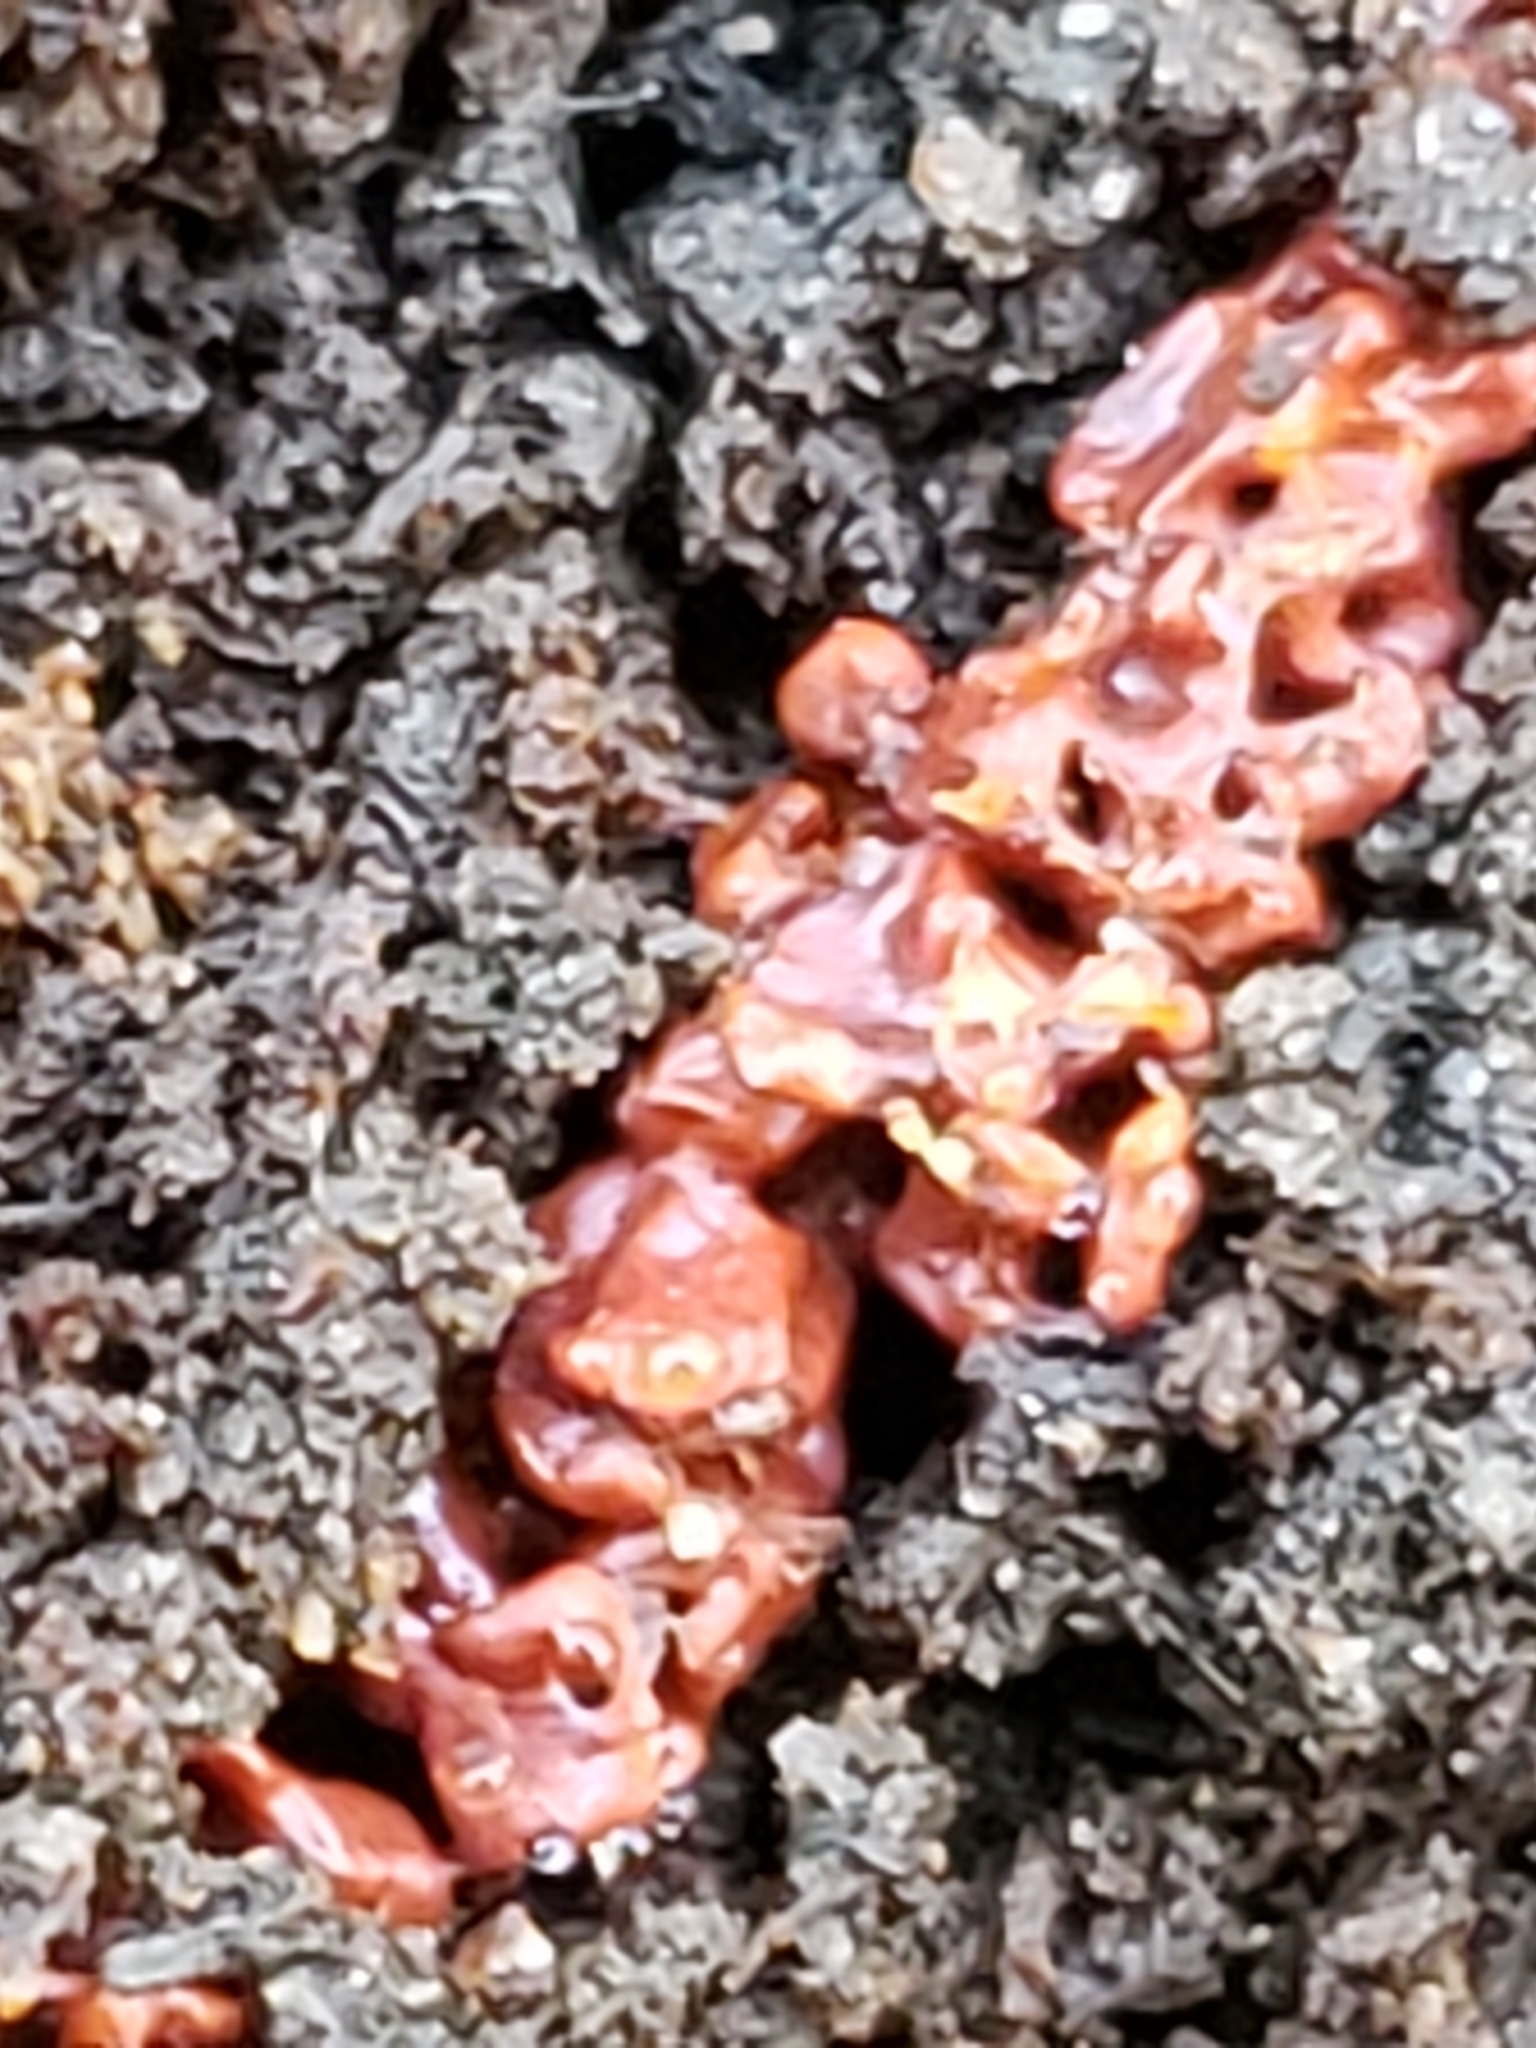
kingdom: Protozoa
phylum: Mycetozoa
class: Myxomycetes
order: Trichiales
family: Trichiaceae
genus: Metatrichia
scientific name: Metatrichia vesparia
